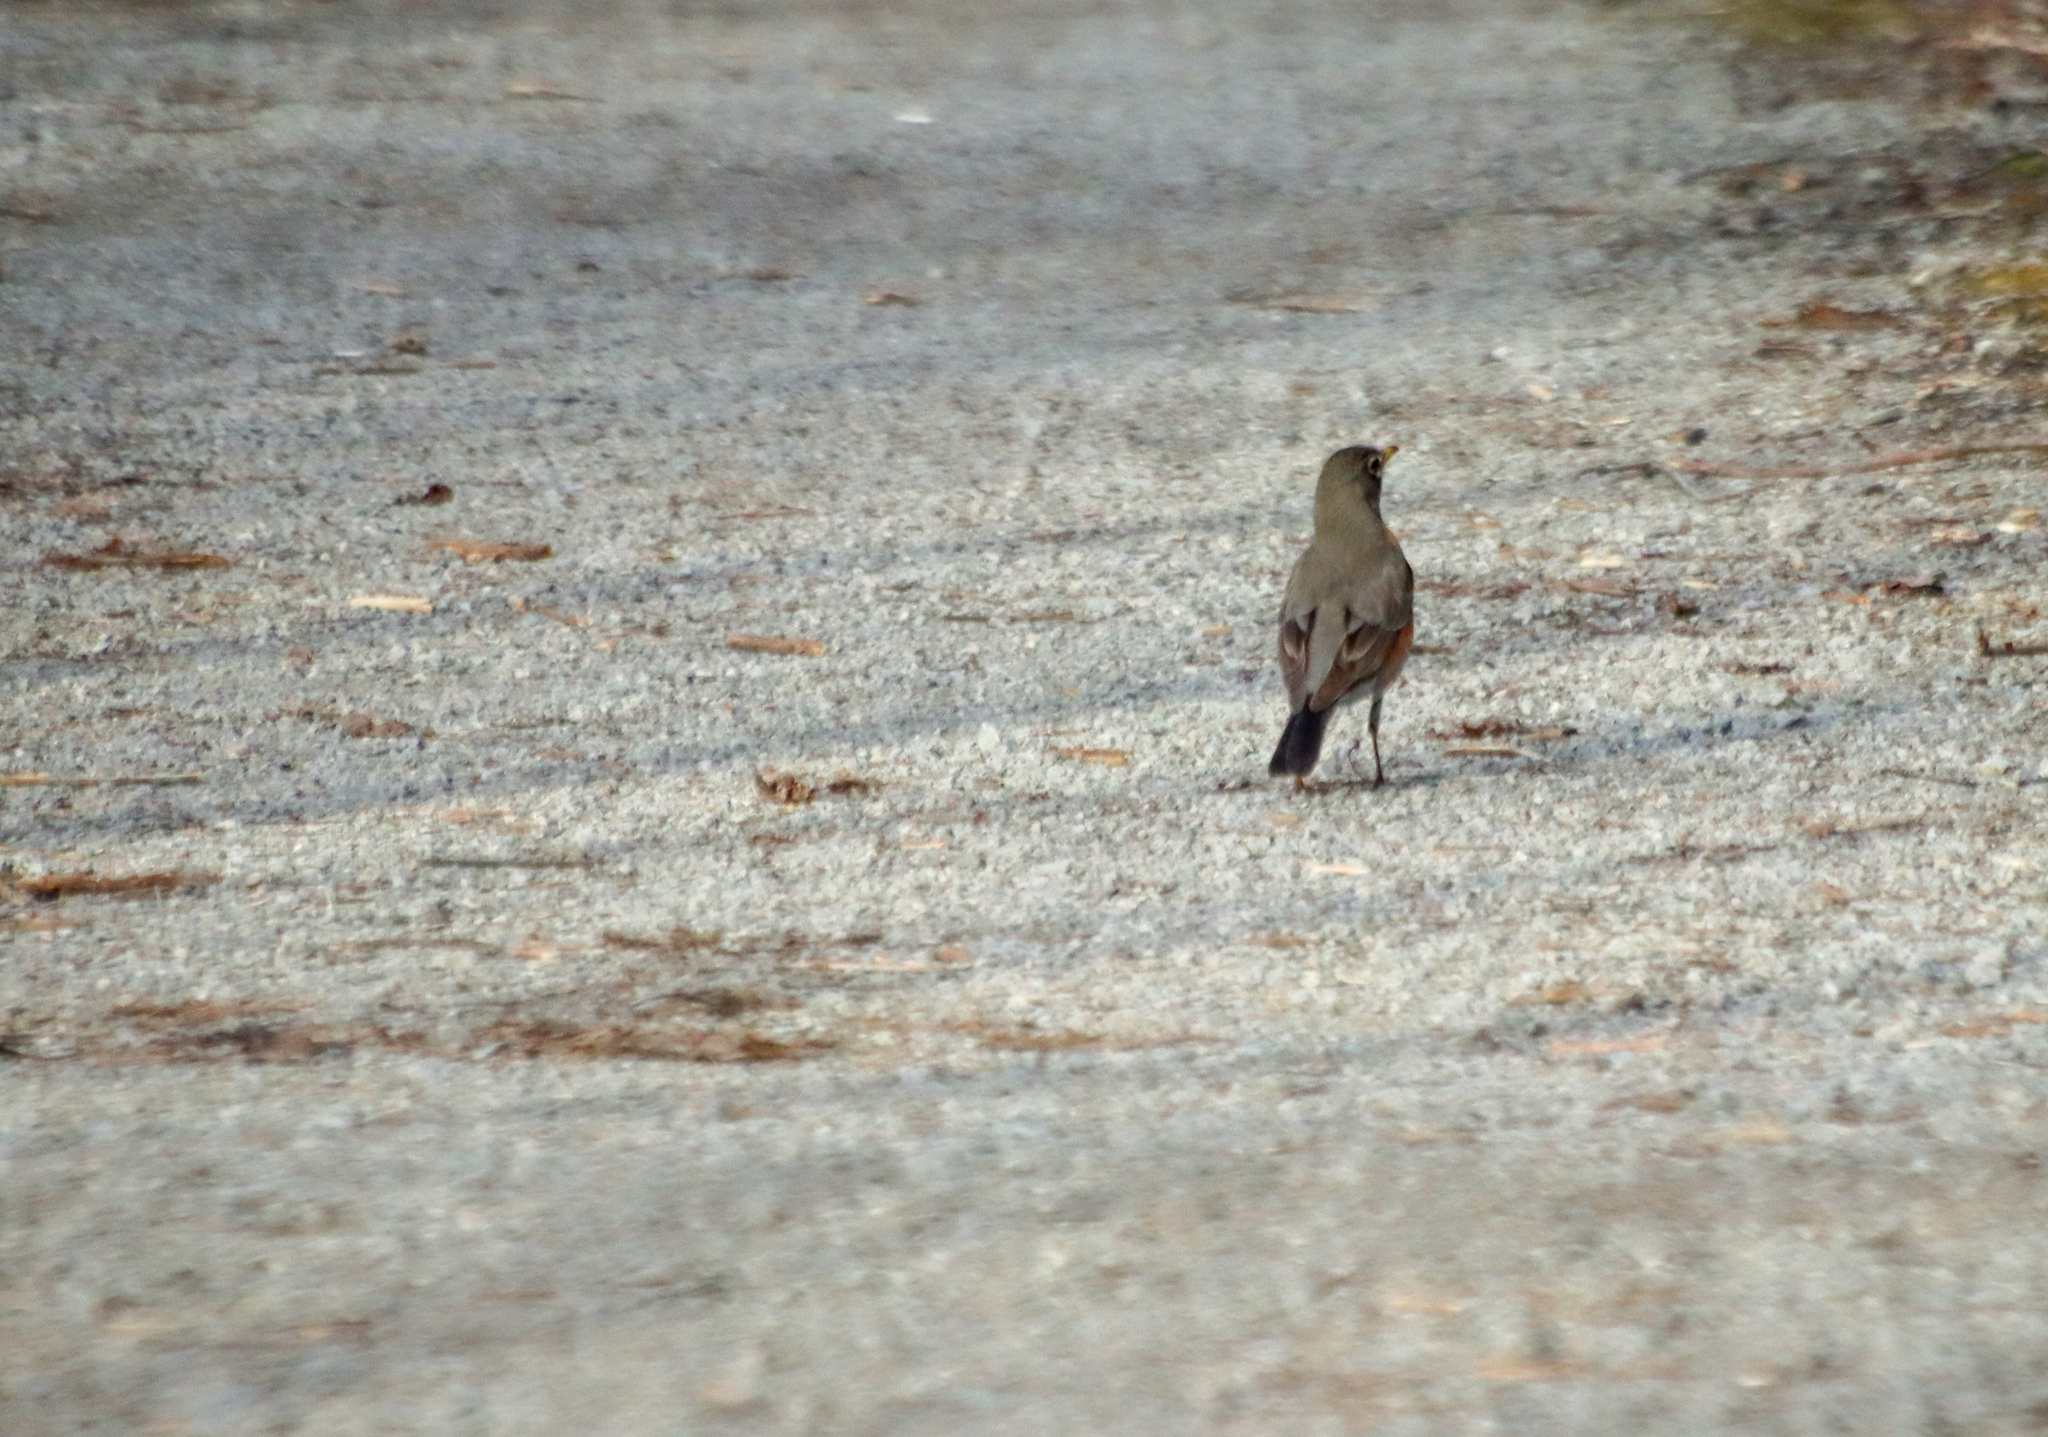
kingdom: Animalia
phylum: Chordata
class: Aves
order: Passeriformes
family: Turdidae
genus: Turdus
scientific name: Turdus migratorius
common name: American robin
